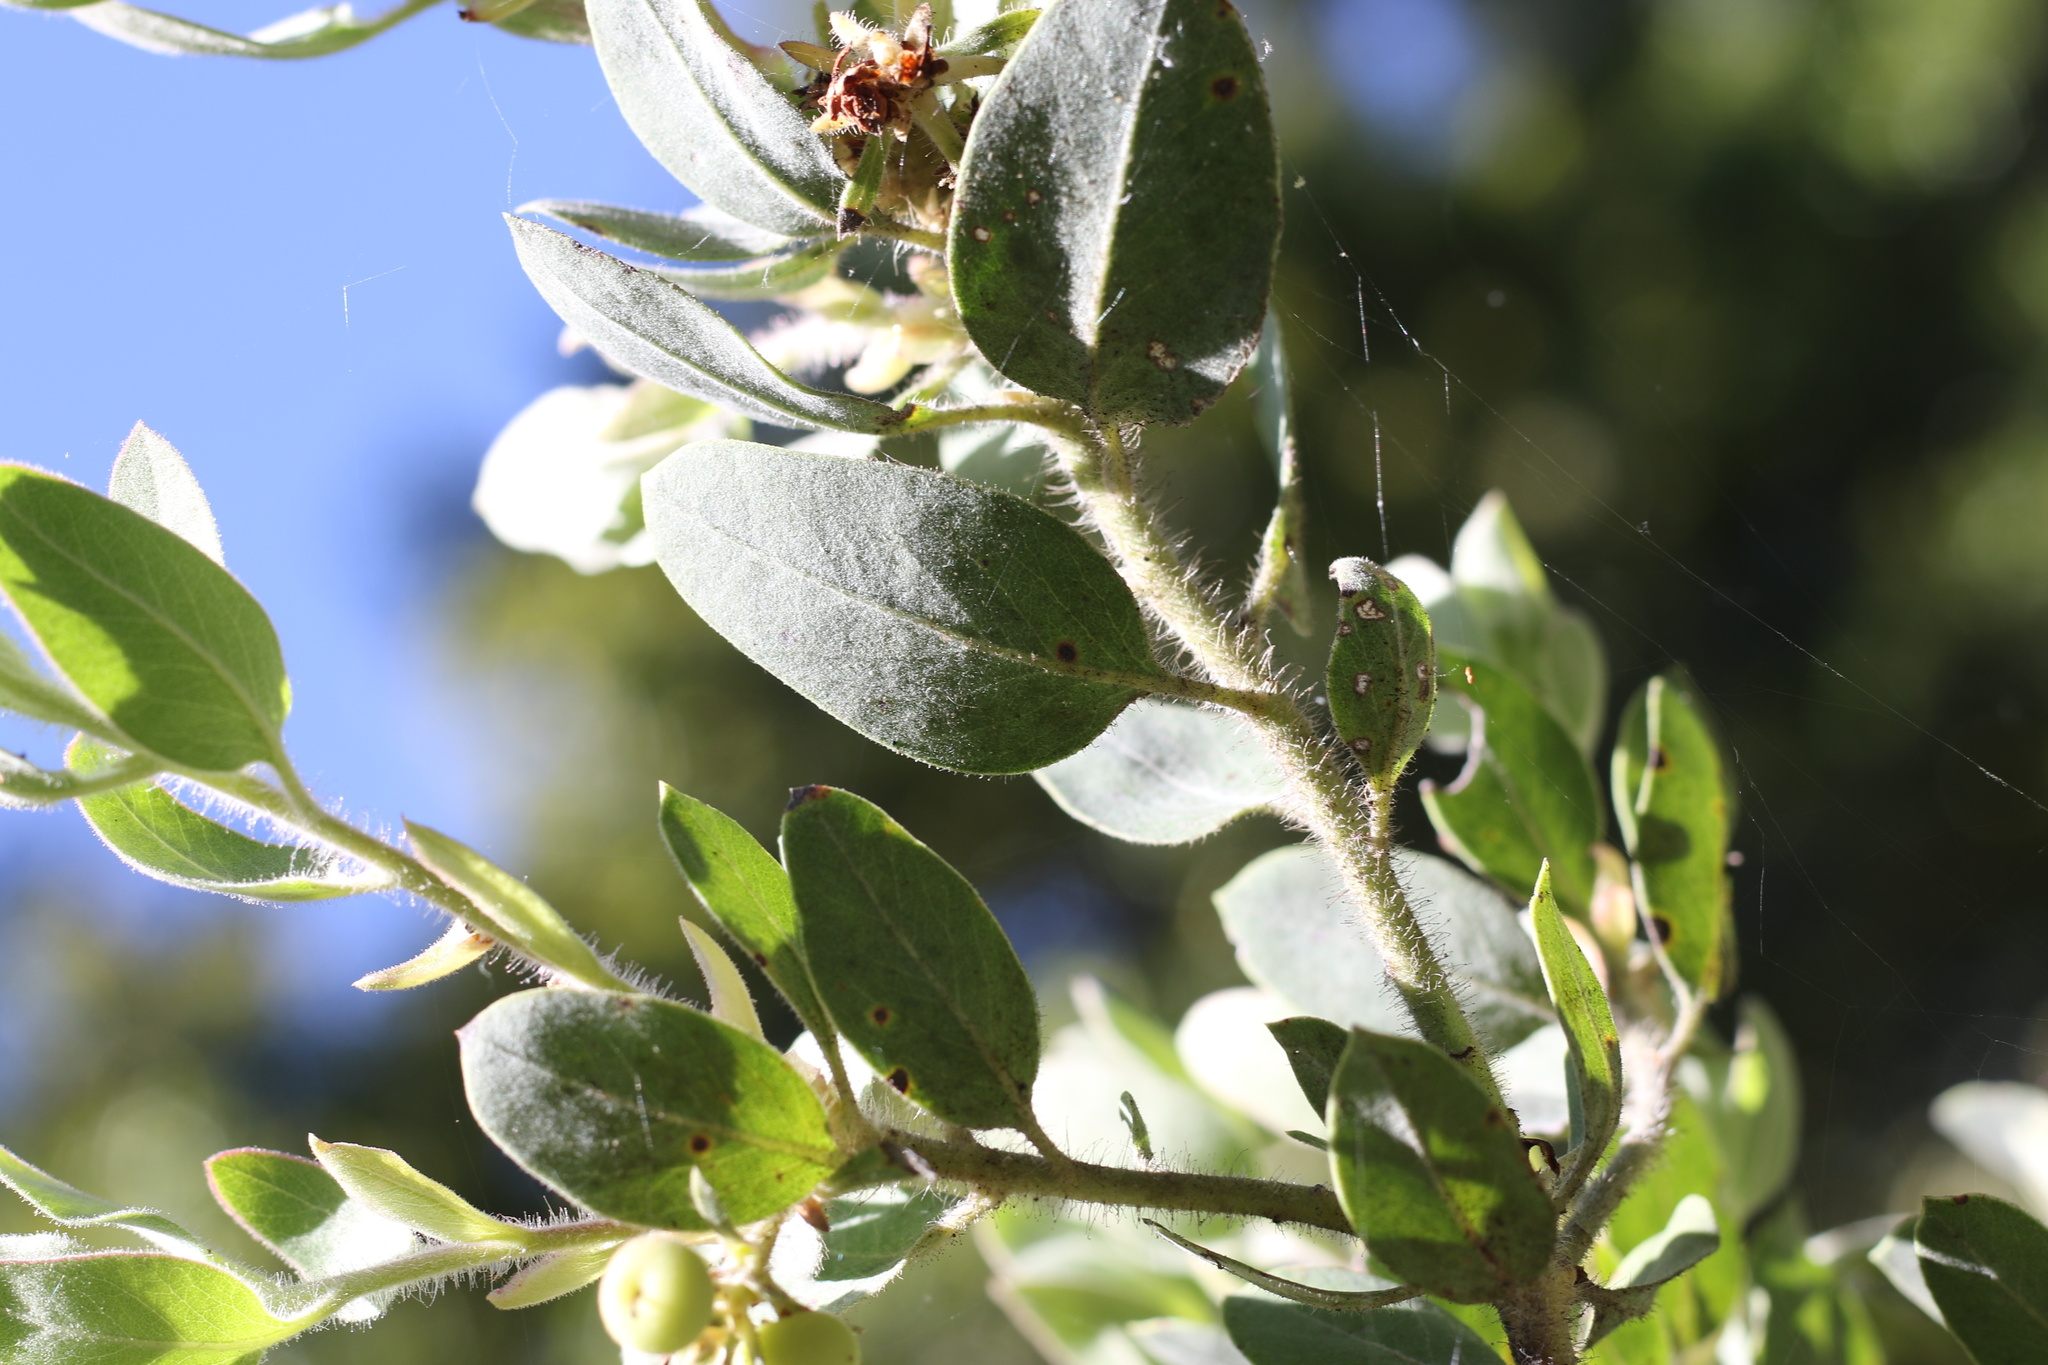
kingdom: Plantae
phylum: Tracheophyta
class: Magnoliopsida
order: Ericales
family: Ericaceae
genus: Arctostaphylos
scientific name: Arctostaphylos nortensis
